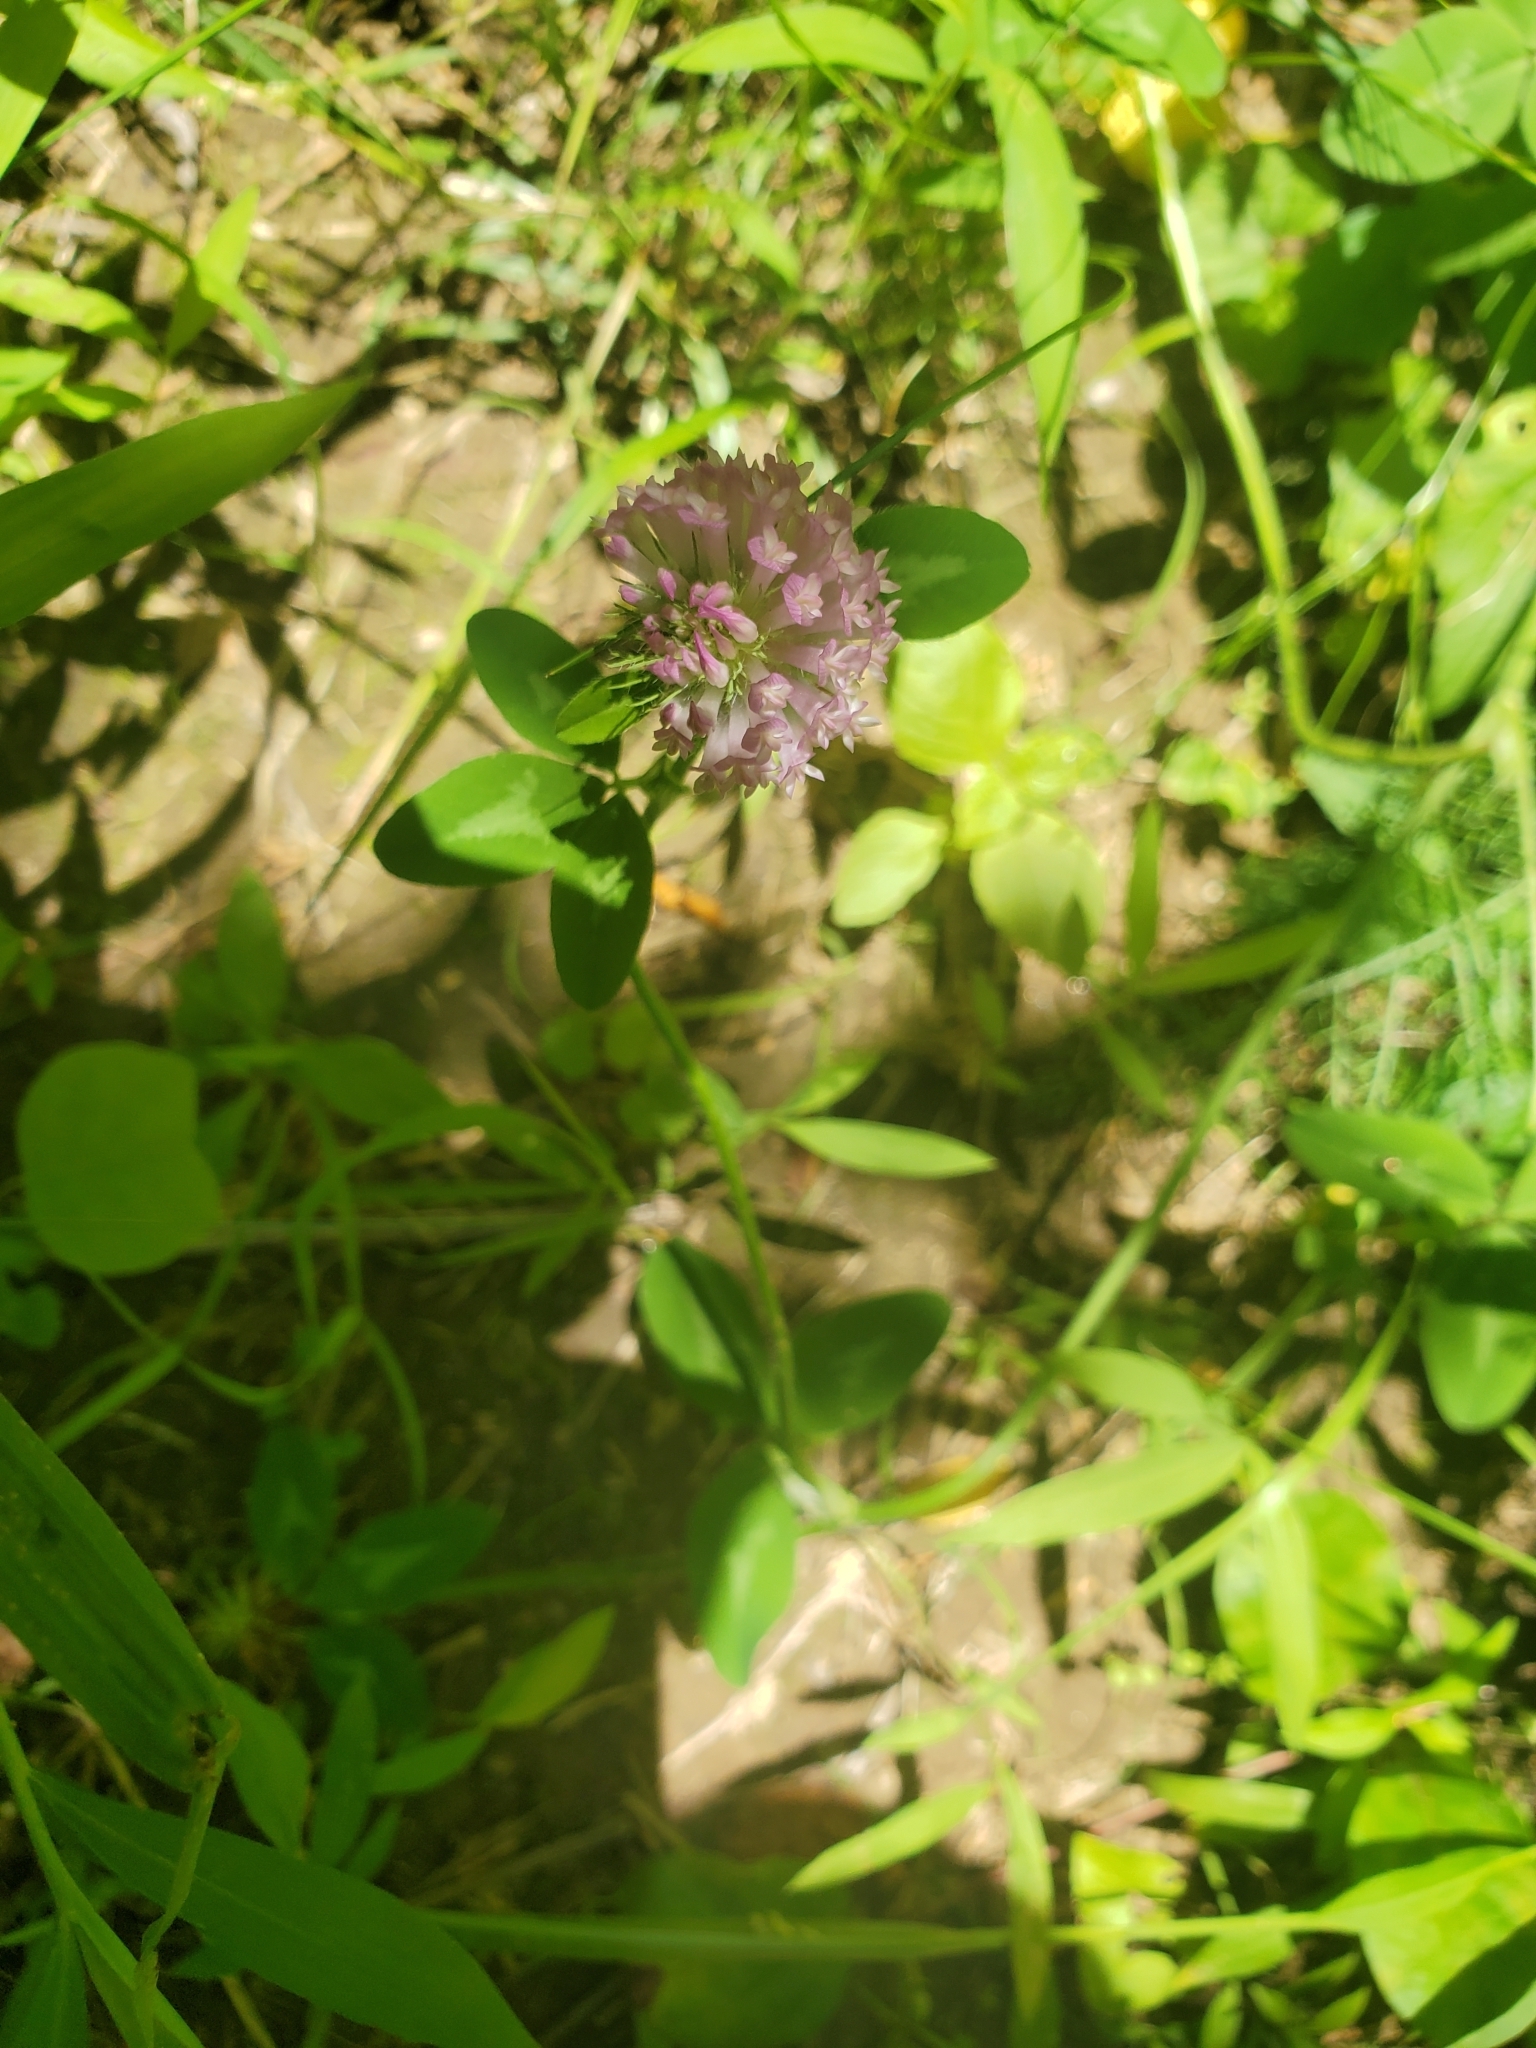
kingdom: Plantae
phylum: Tracheophyta
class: Magnoliopsida
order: Fabales
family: Fabaceae
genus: Trifolium
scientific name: Trifolium pratense
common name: Red clover
